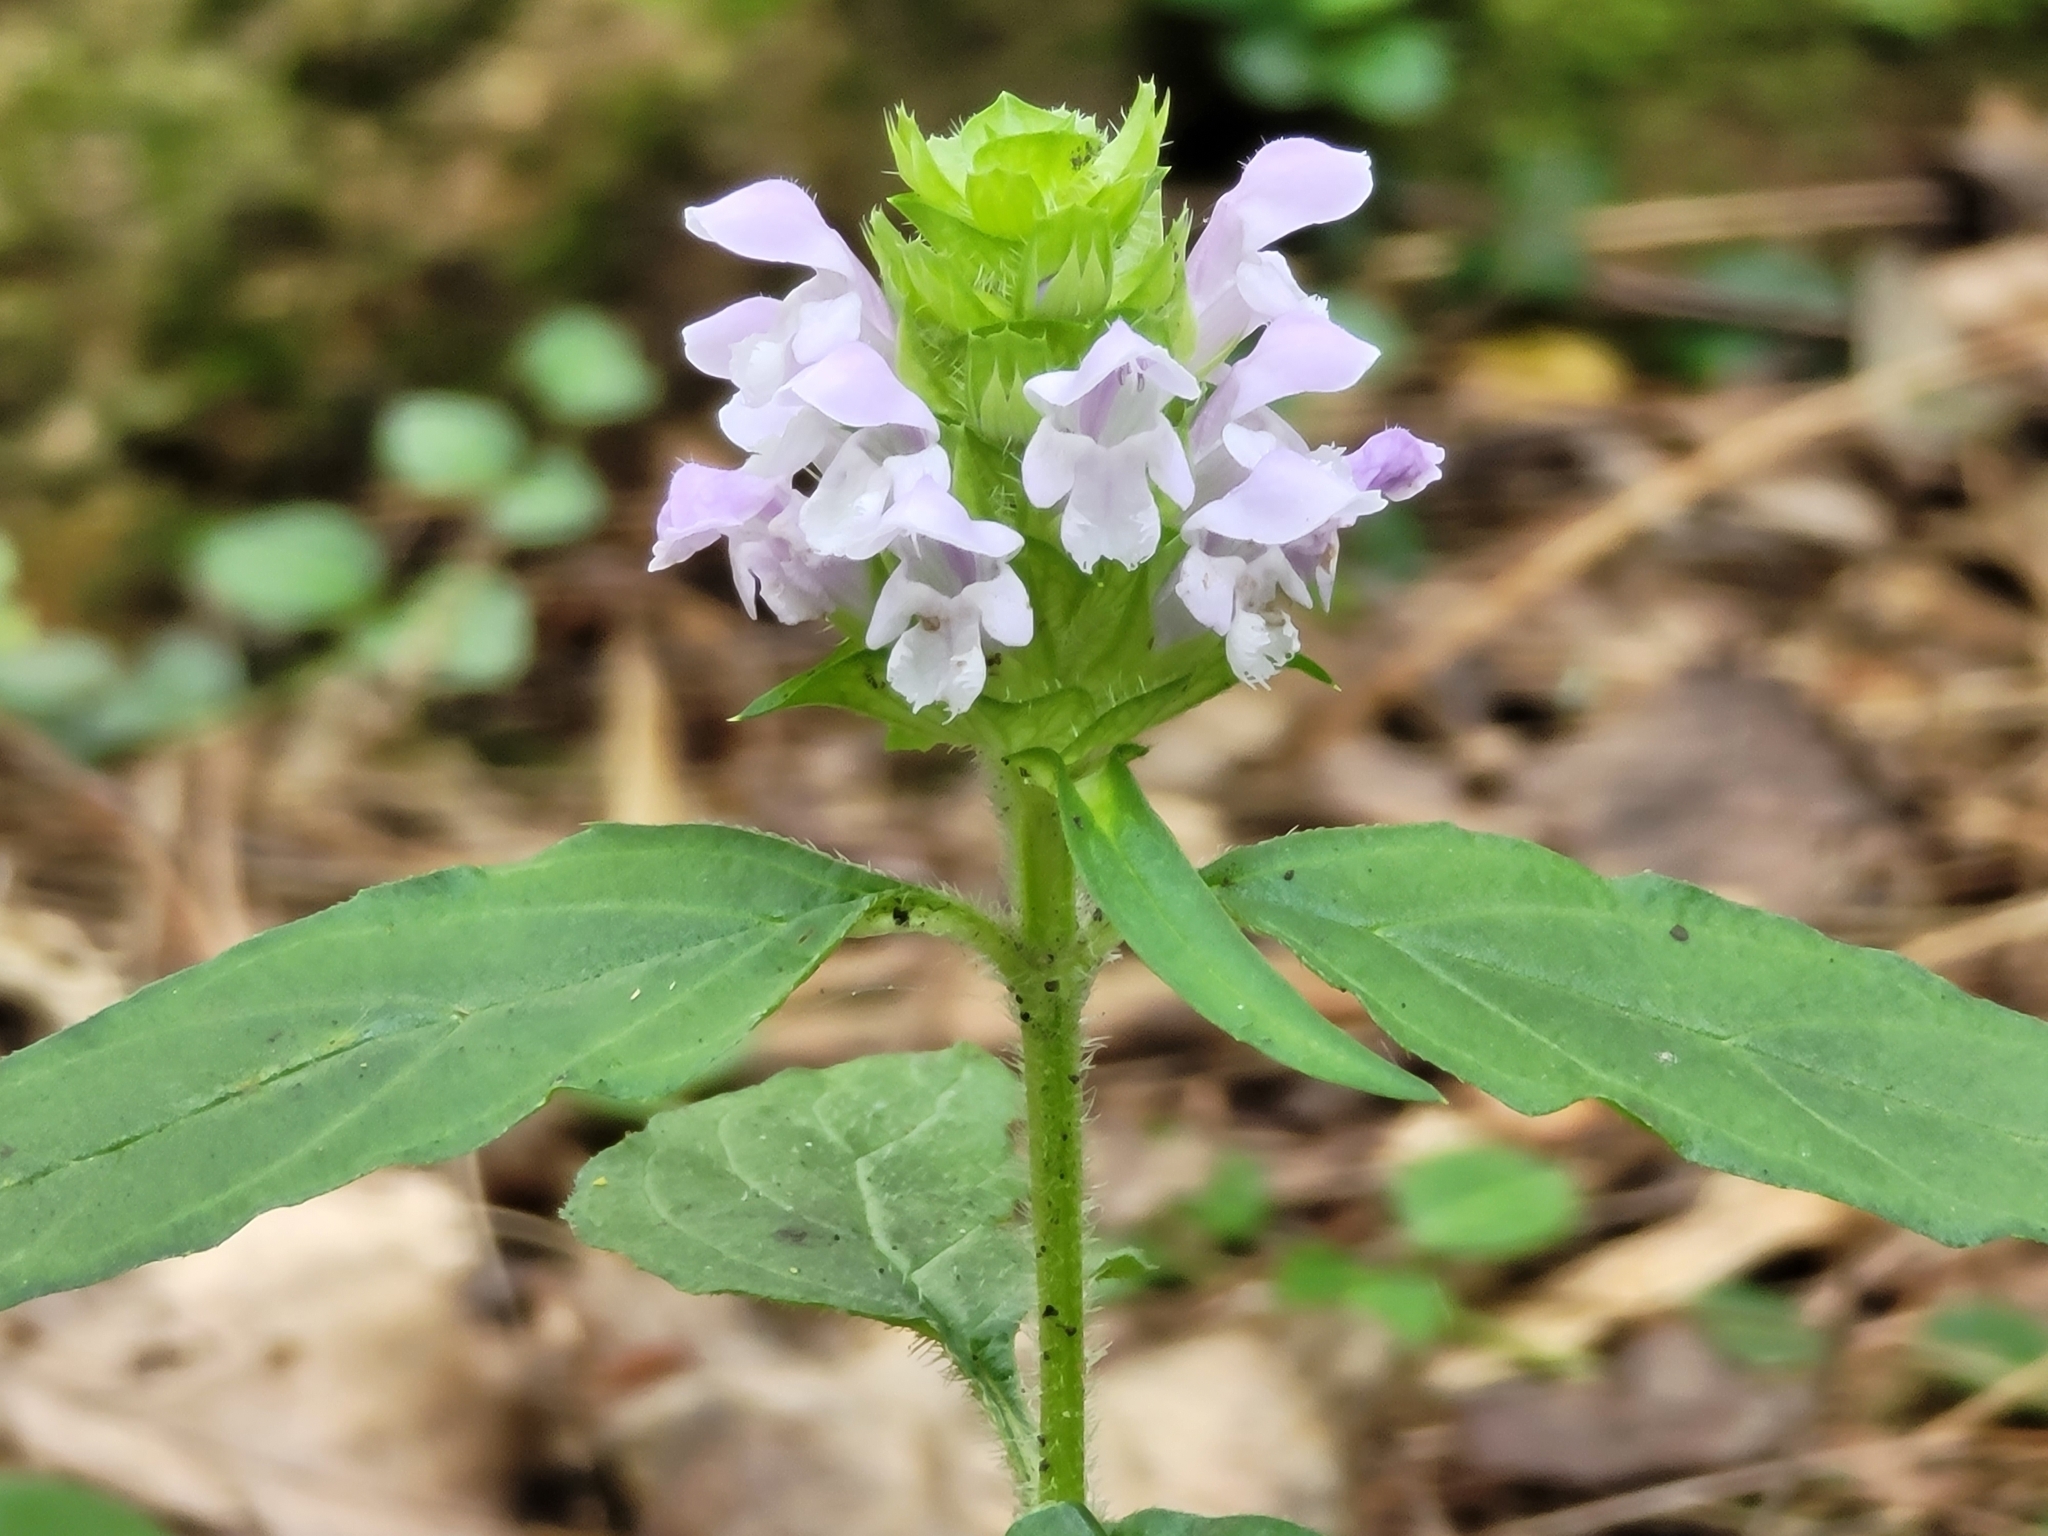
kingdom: Plantae
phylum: Tracheophyta
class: Magnoliopsida
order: Lamiales
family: Lamiaceae
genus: Prunella
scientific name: Prunella vulgaris
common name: Heal-all
